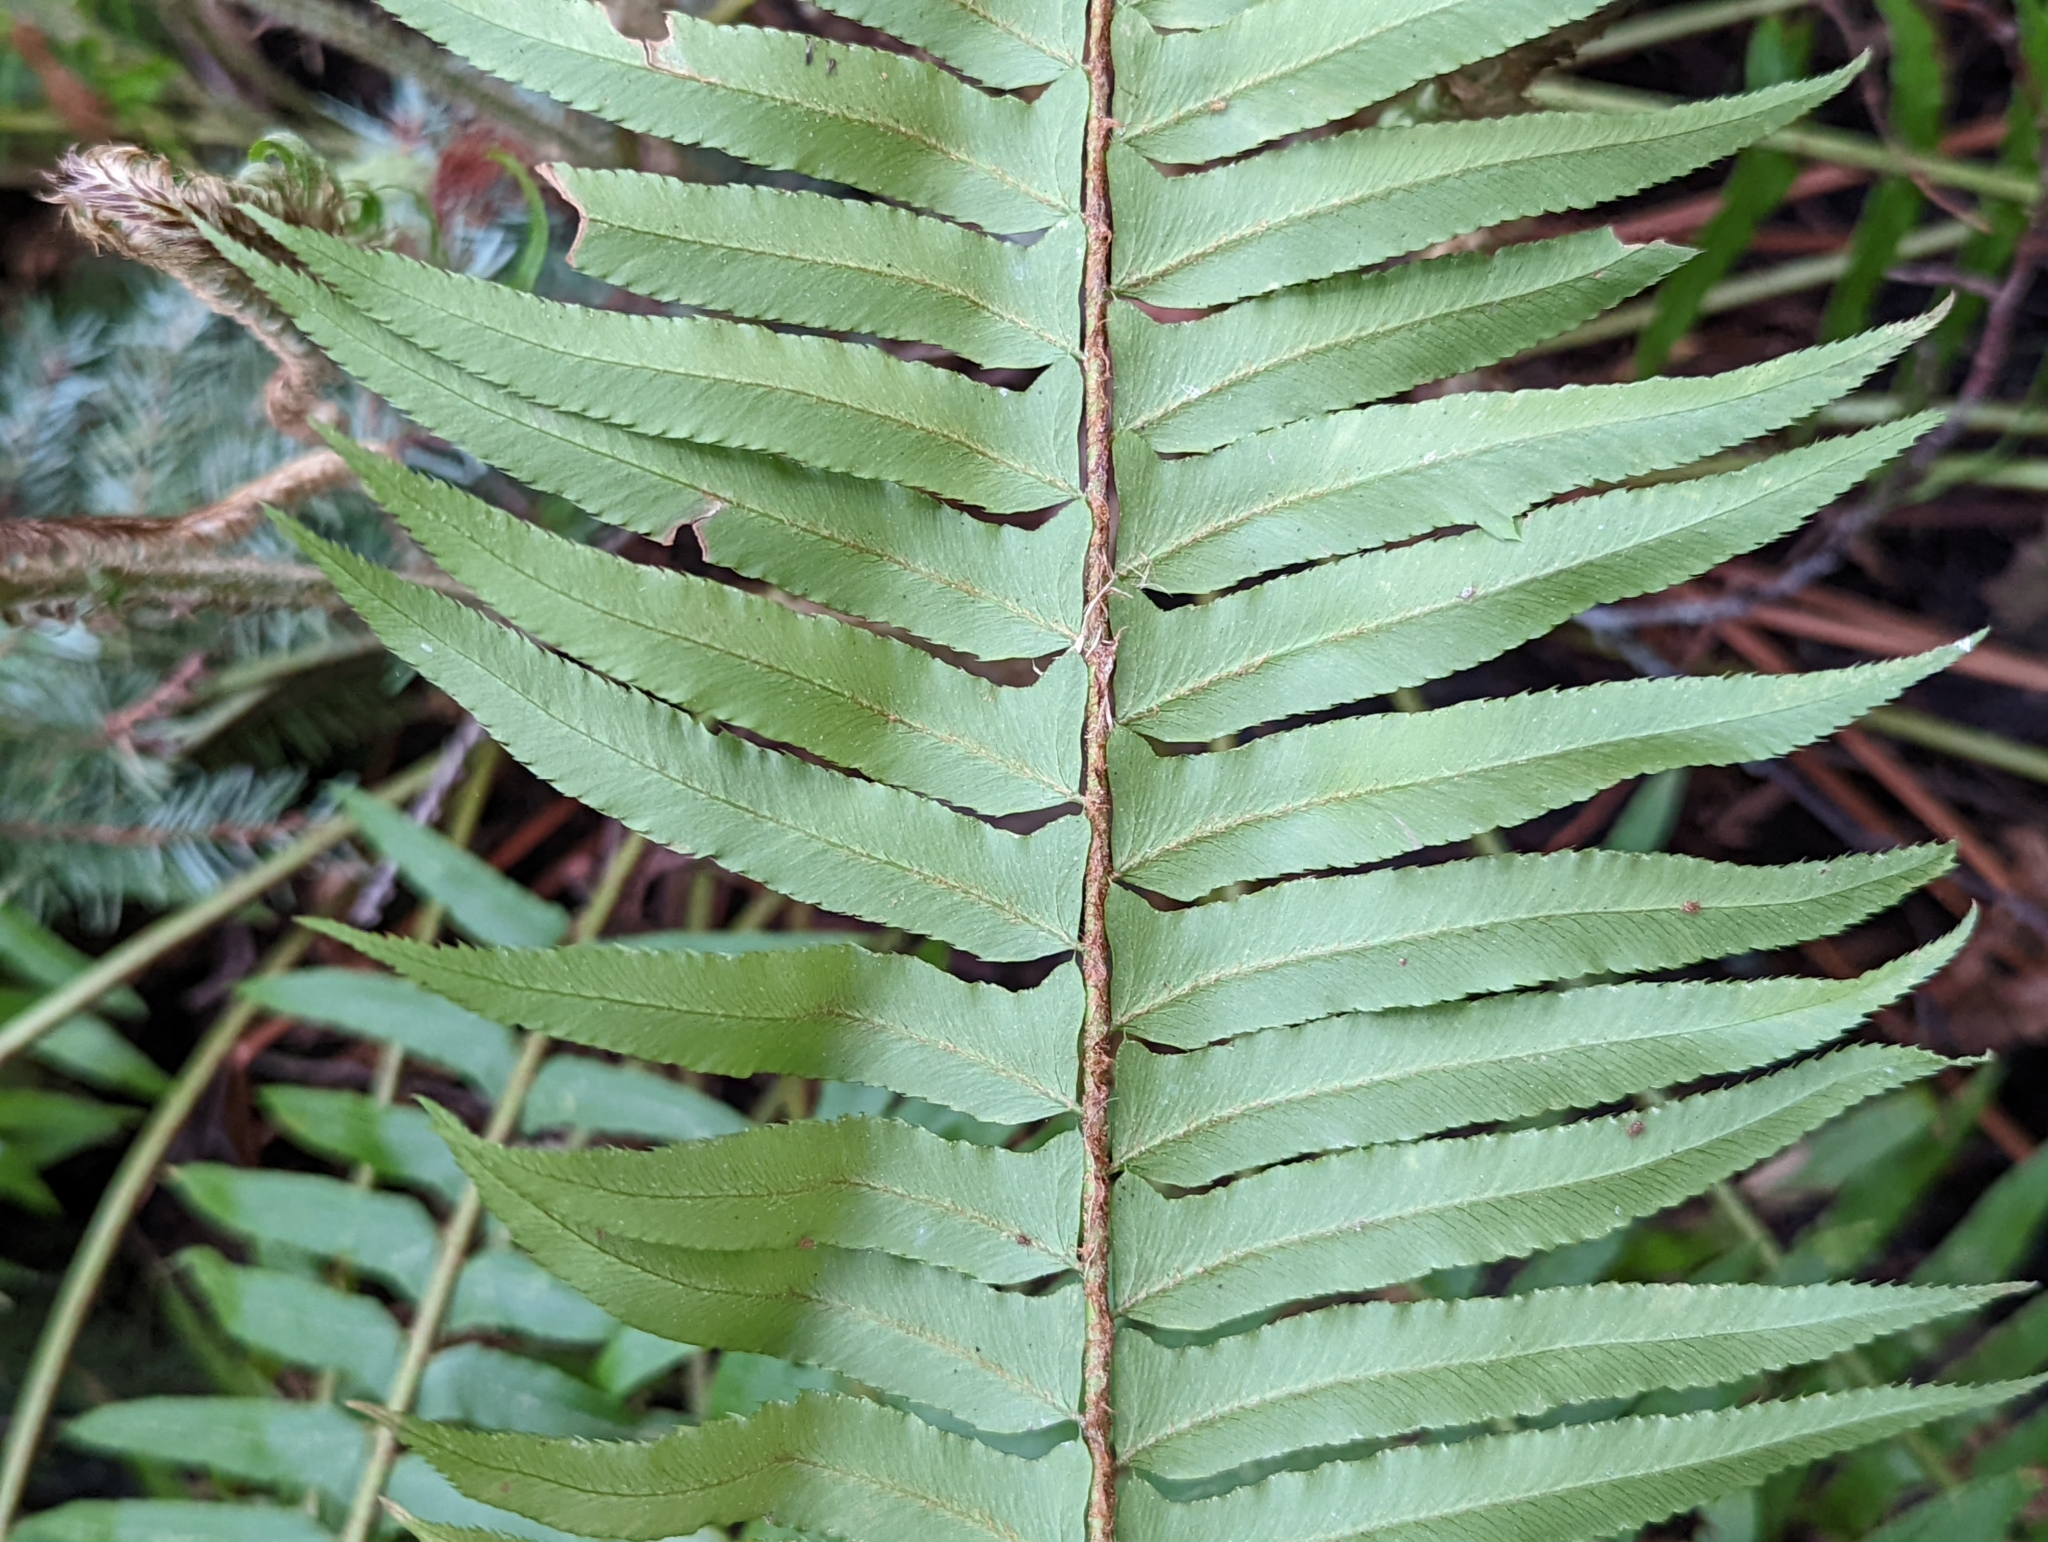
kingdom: Plantae
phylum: Tracheophyta
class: Polypodiopsida
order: Polypodiales
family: Dryopteridaceae
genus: Polystichum
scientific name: Polystichum munitum
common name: Western sword-fern
